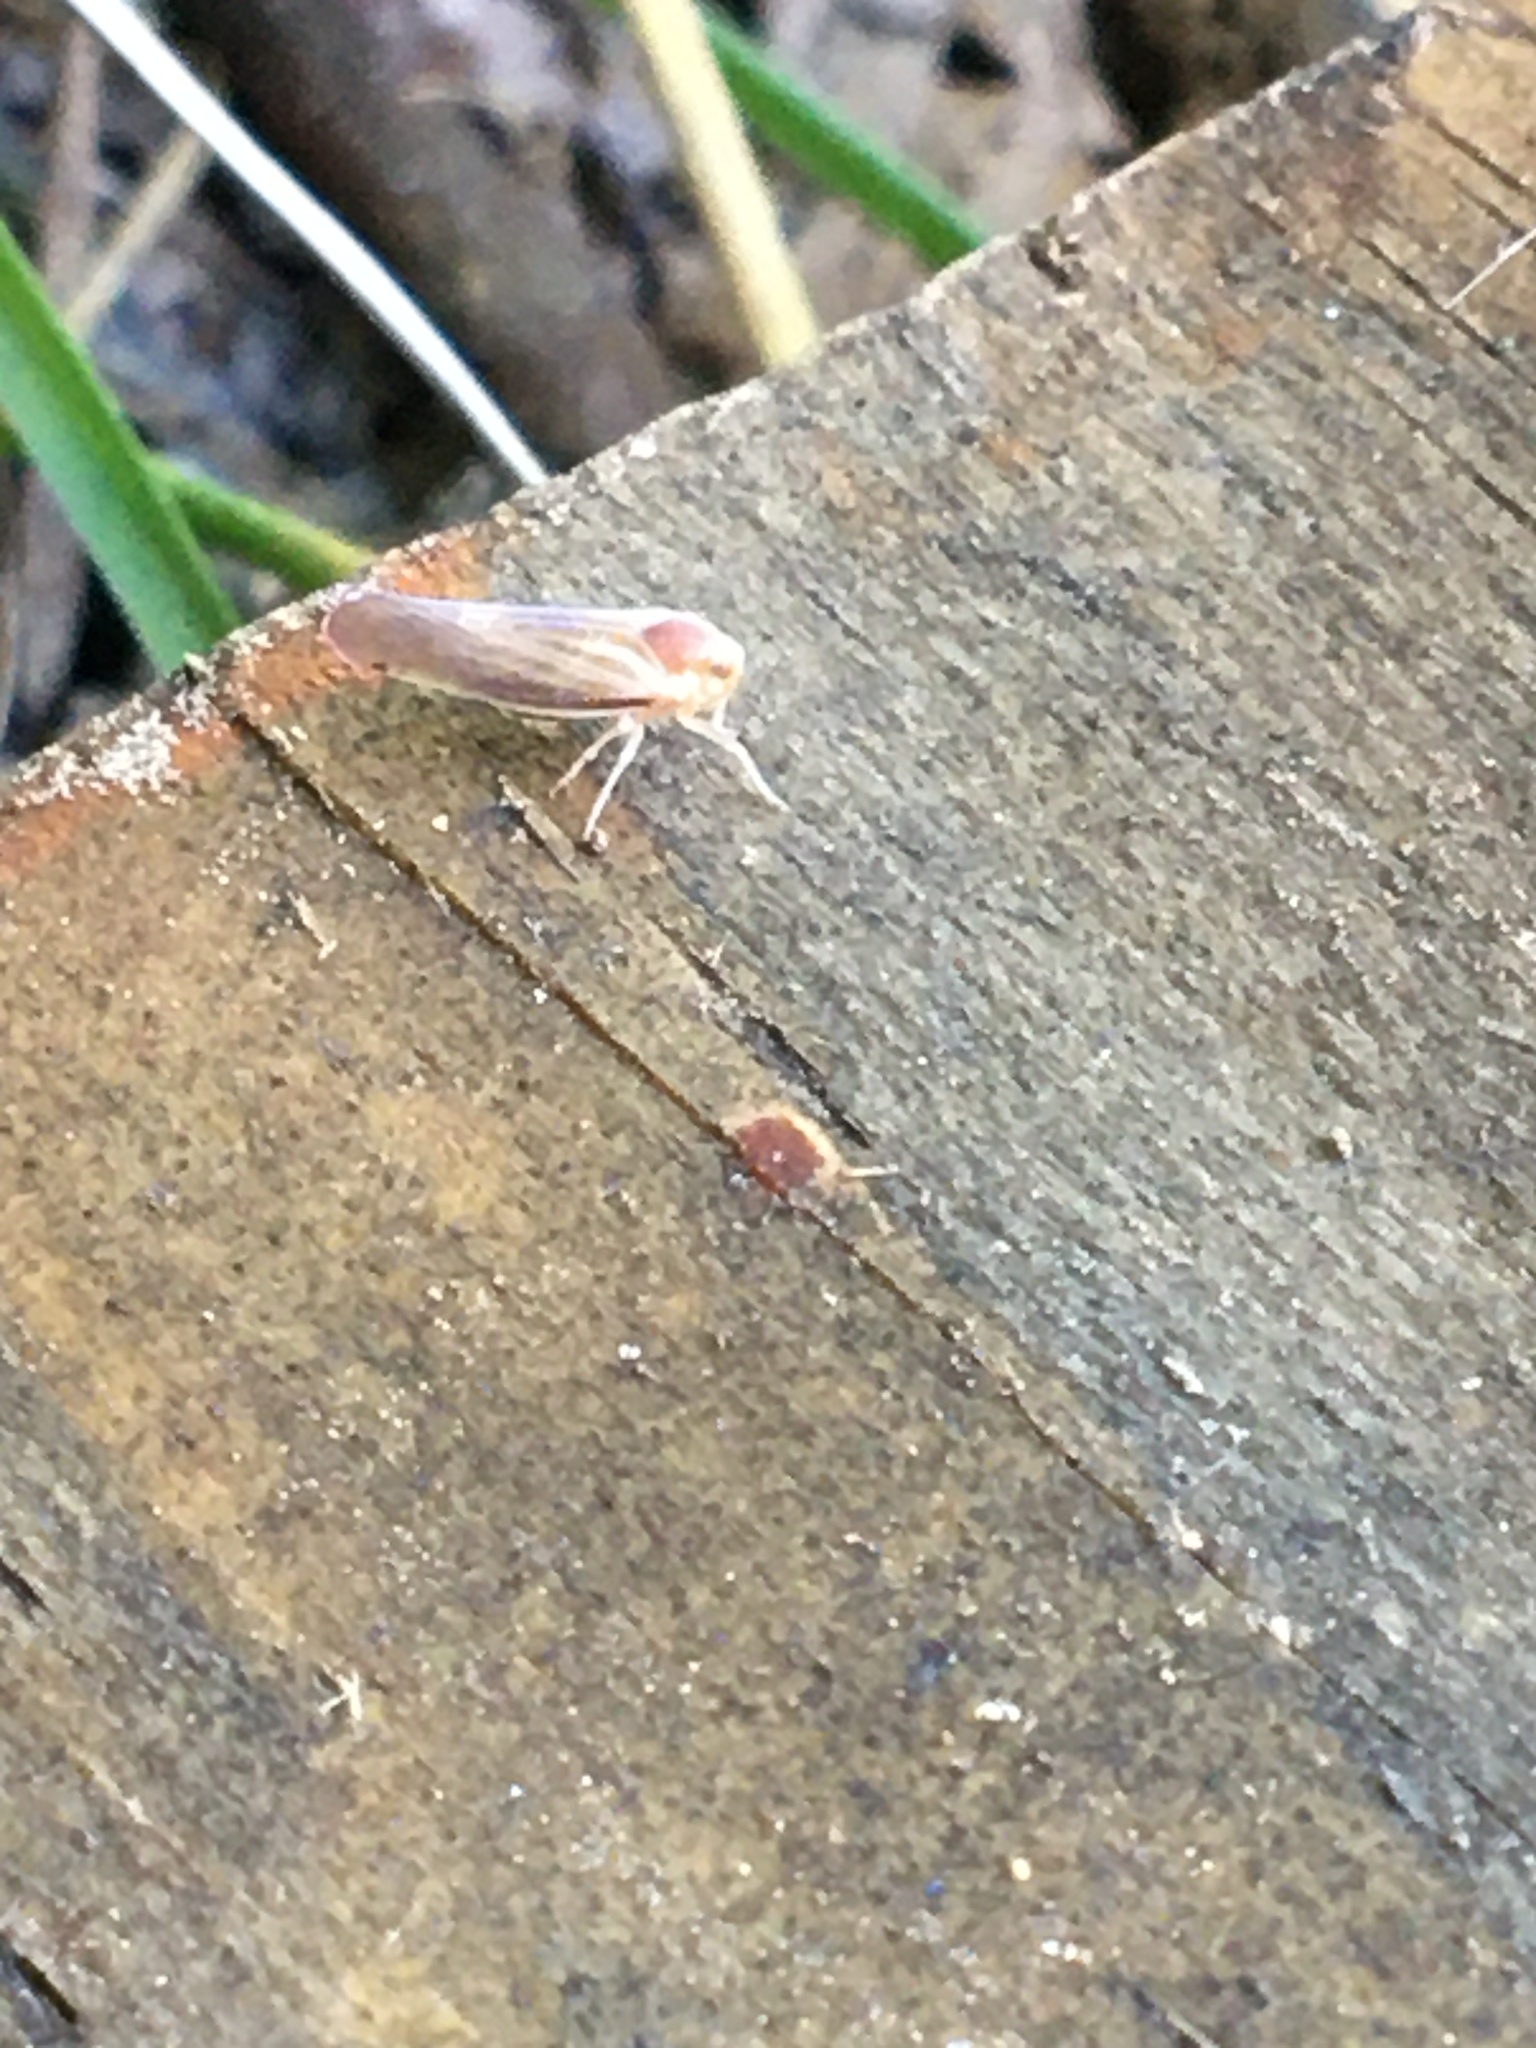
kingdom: Animalia
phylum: Arthropoda
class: Insecta
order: Hemiptera
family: Derbidae
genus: Omolicna
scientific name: Omolicna uhleri
